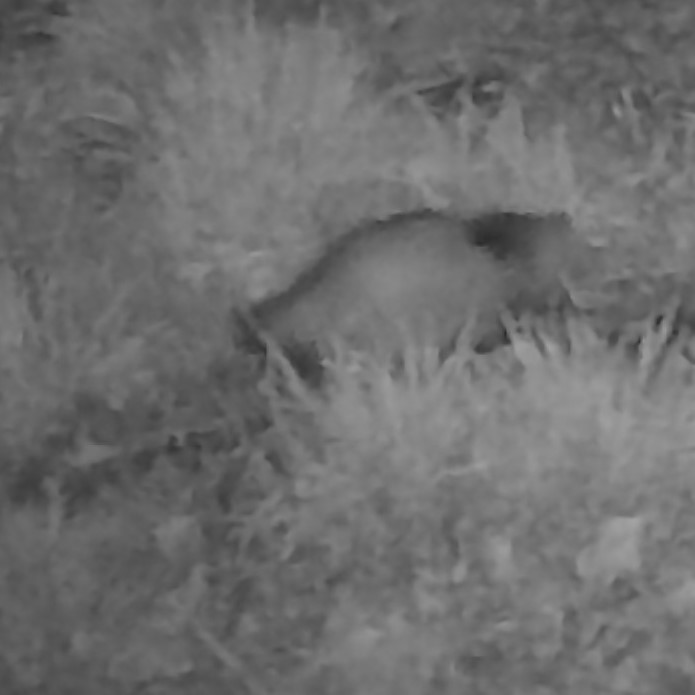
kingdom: Animalia
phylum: Chordata
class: Mammalia
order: Didelphimorphia
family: Didelphidae
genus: Didelphis
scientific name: Didelphis virginiana
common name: Virginia opossum
